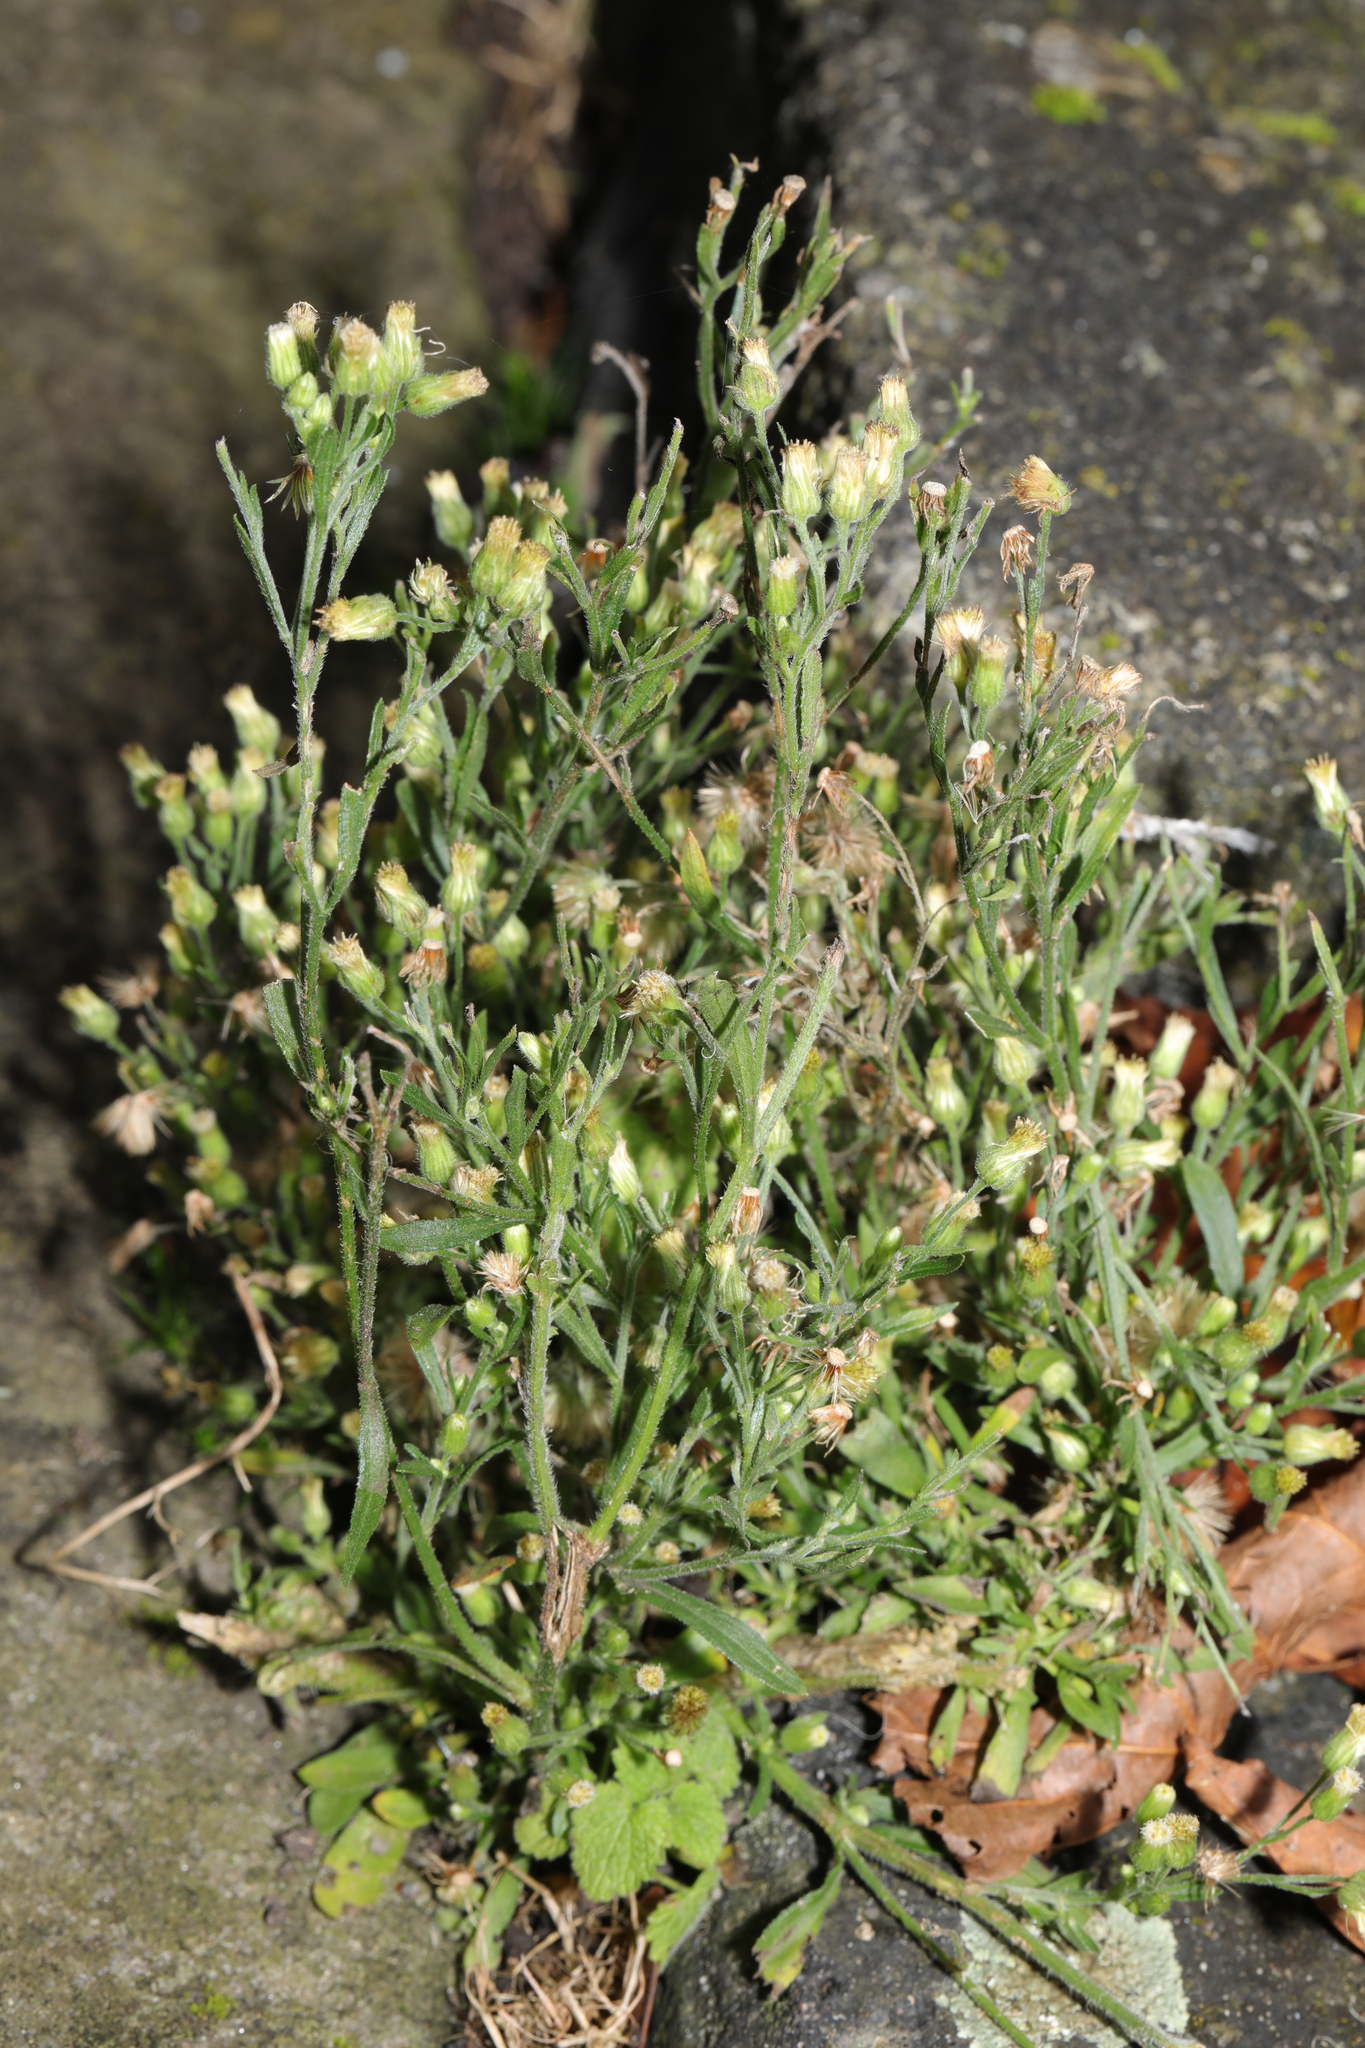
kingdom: Plantae
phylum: Tracheophyta
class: Magnoliopsida
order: Asterales
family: Asteraceae
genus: Erigeron
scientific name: Erigeron sumatrensis
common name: Daisy
